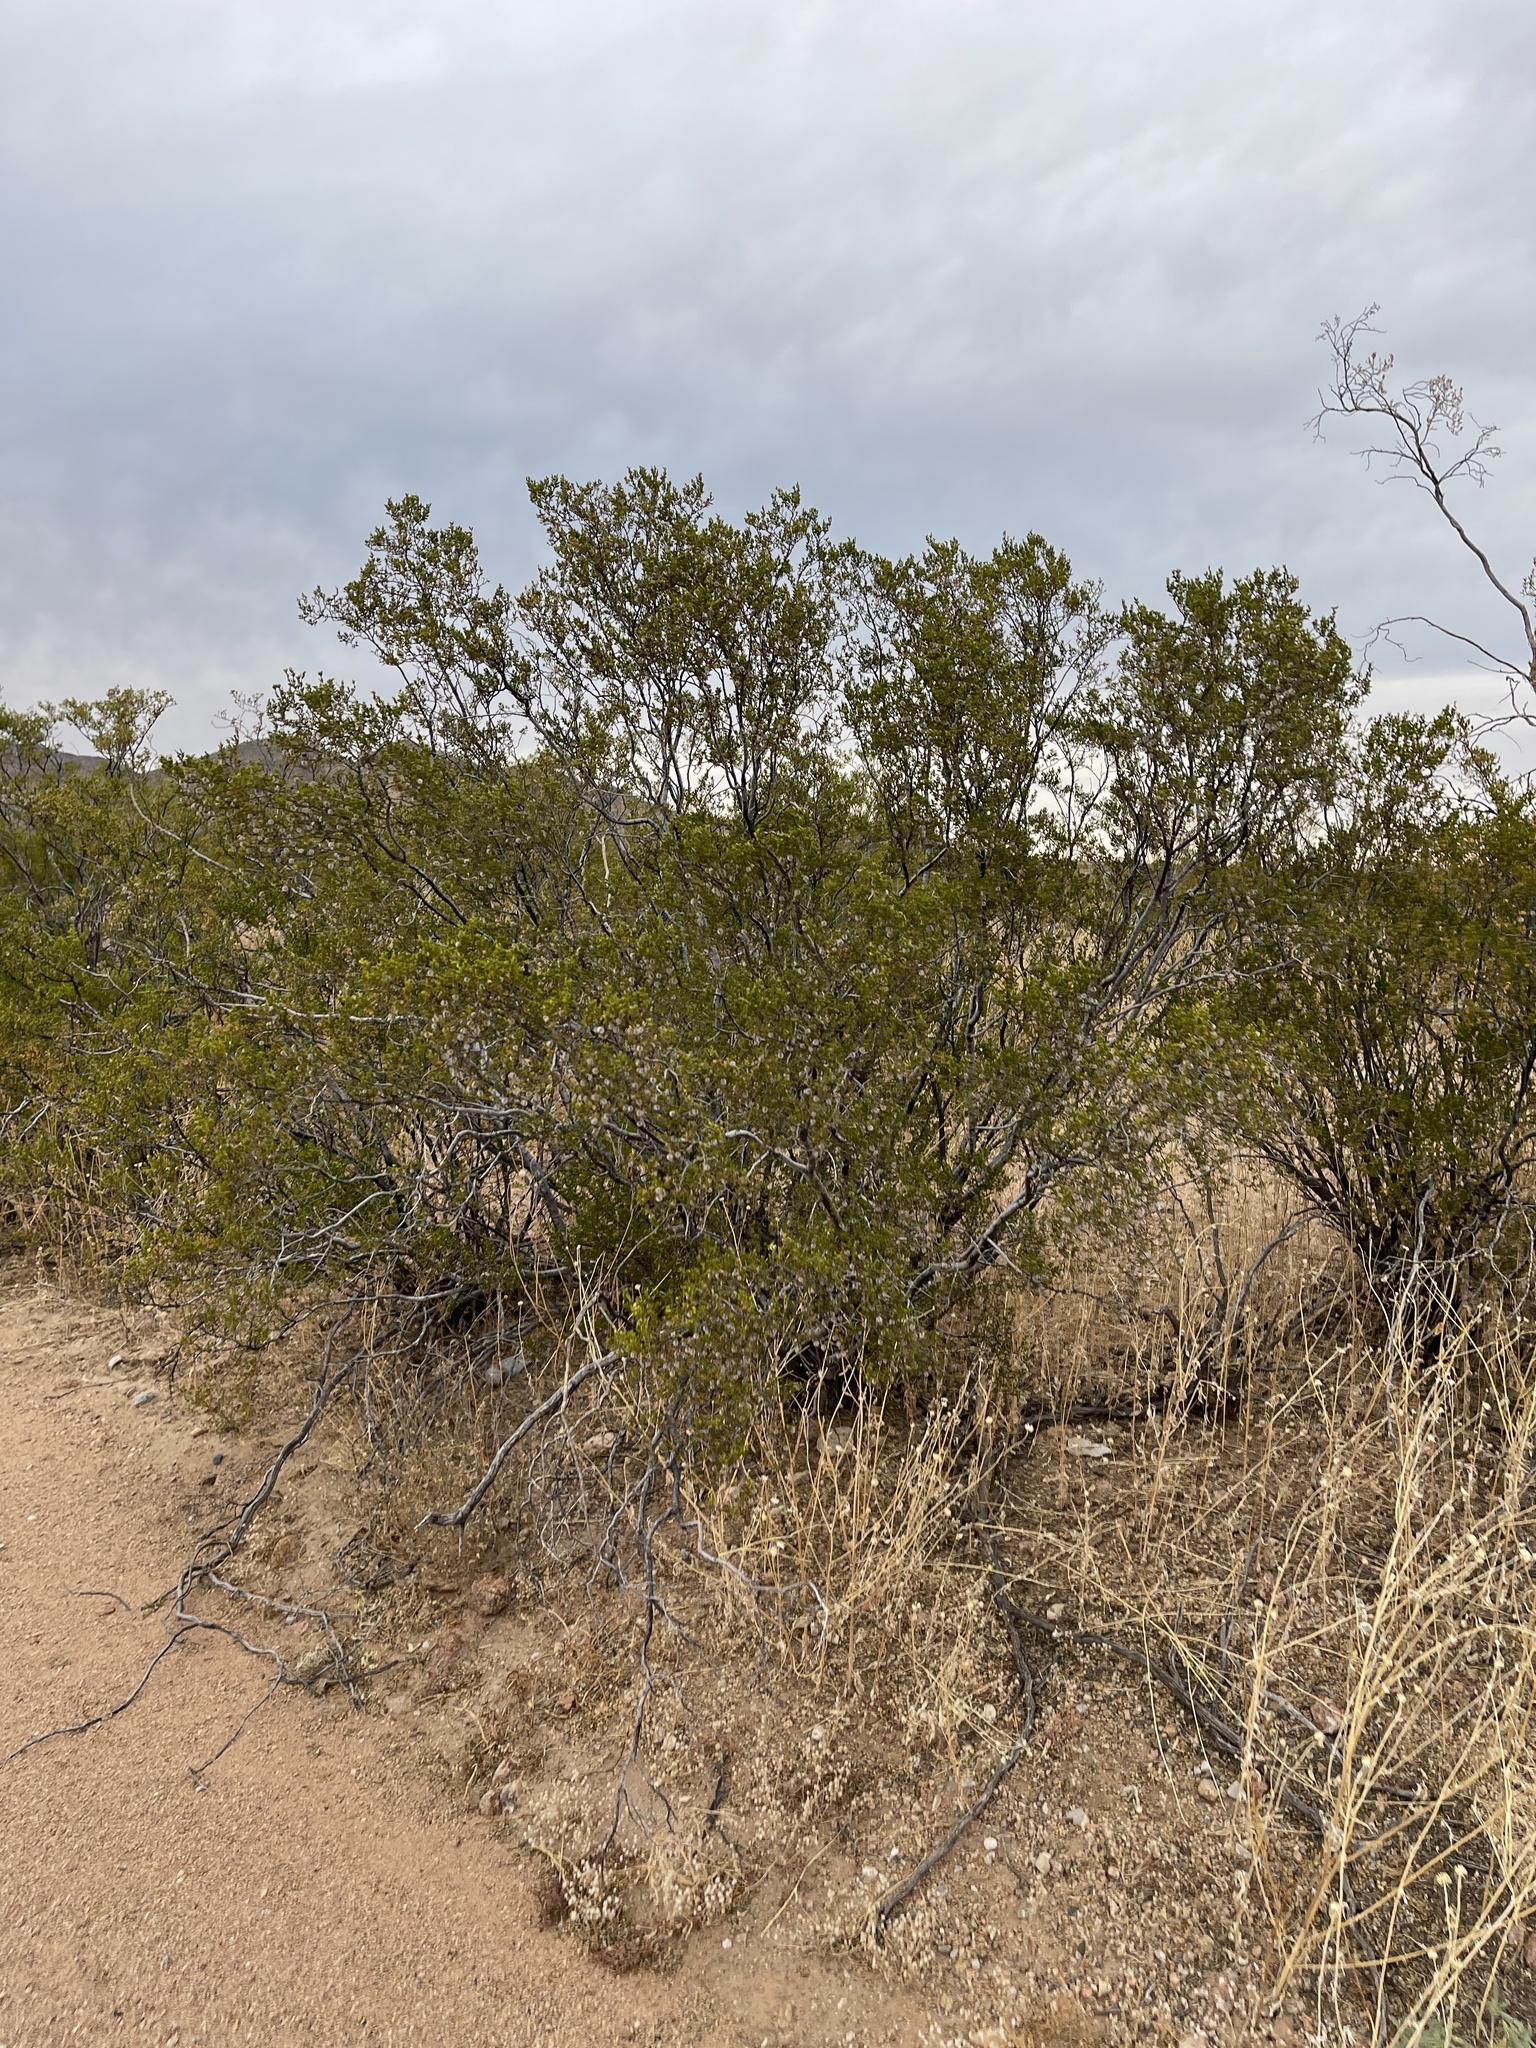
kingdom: Plantae
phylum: Tracheophyta
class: Magnoliopsida
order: Zygophyllales
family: Zygophyllaceae
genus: Larrea
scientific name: Larrea tridentata
